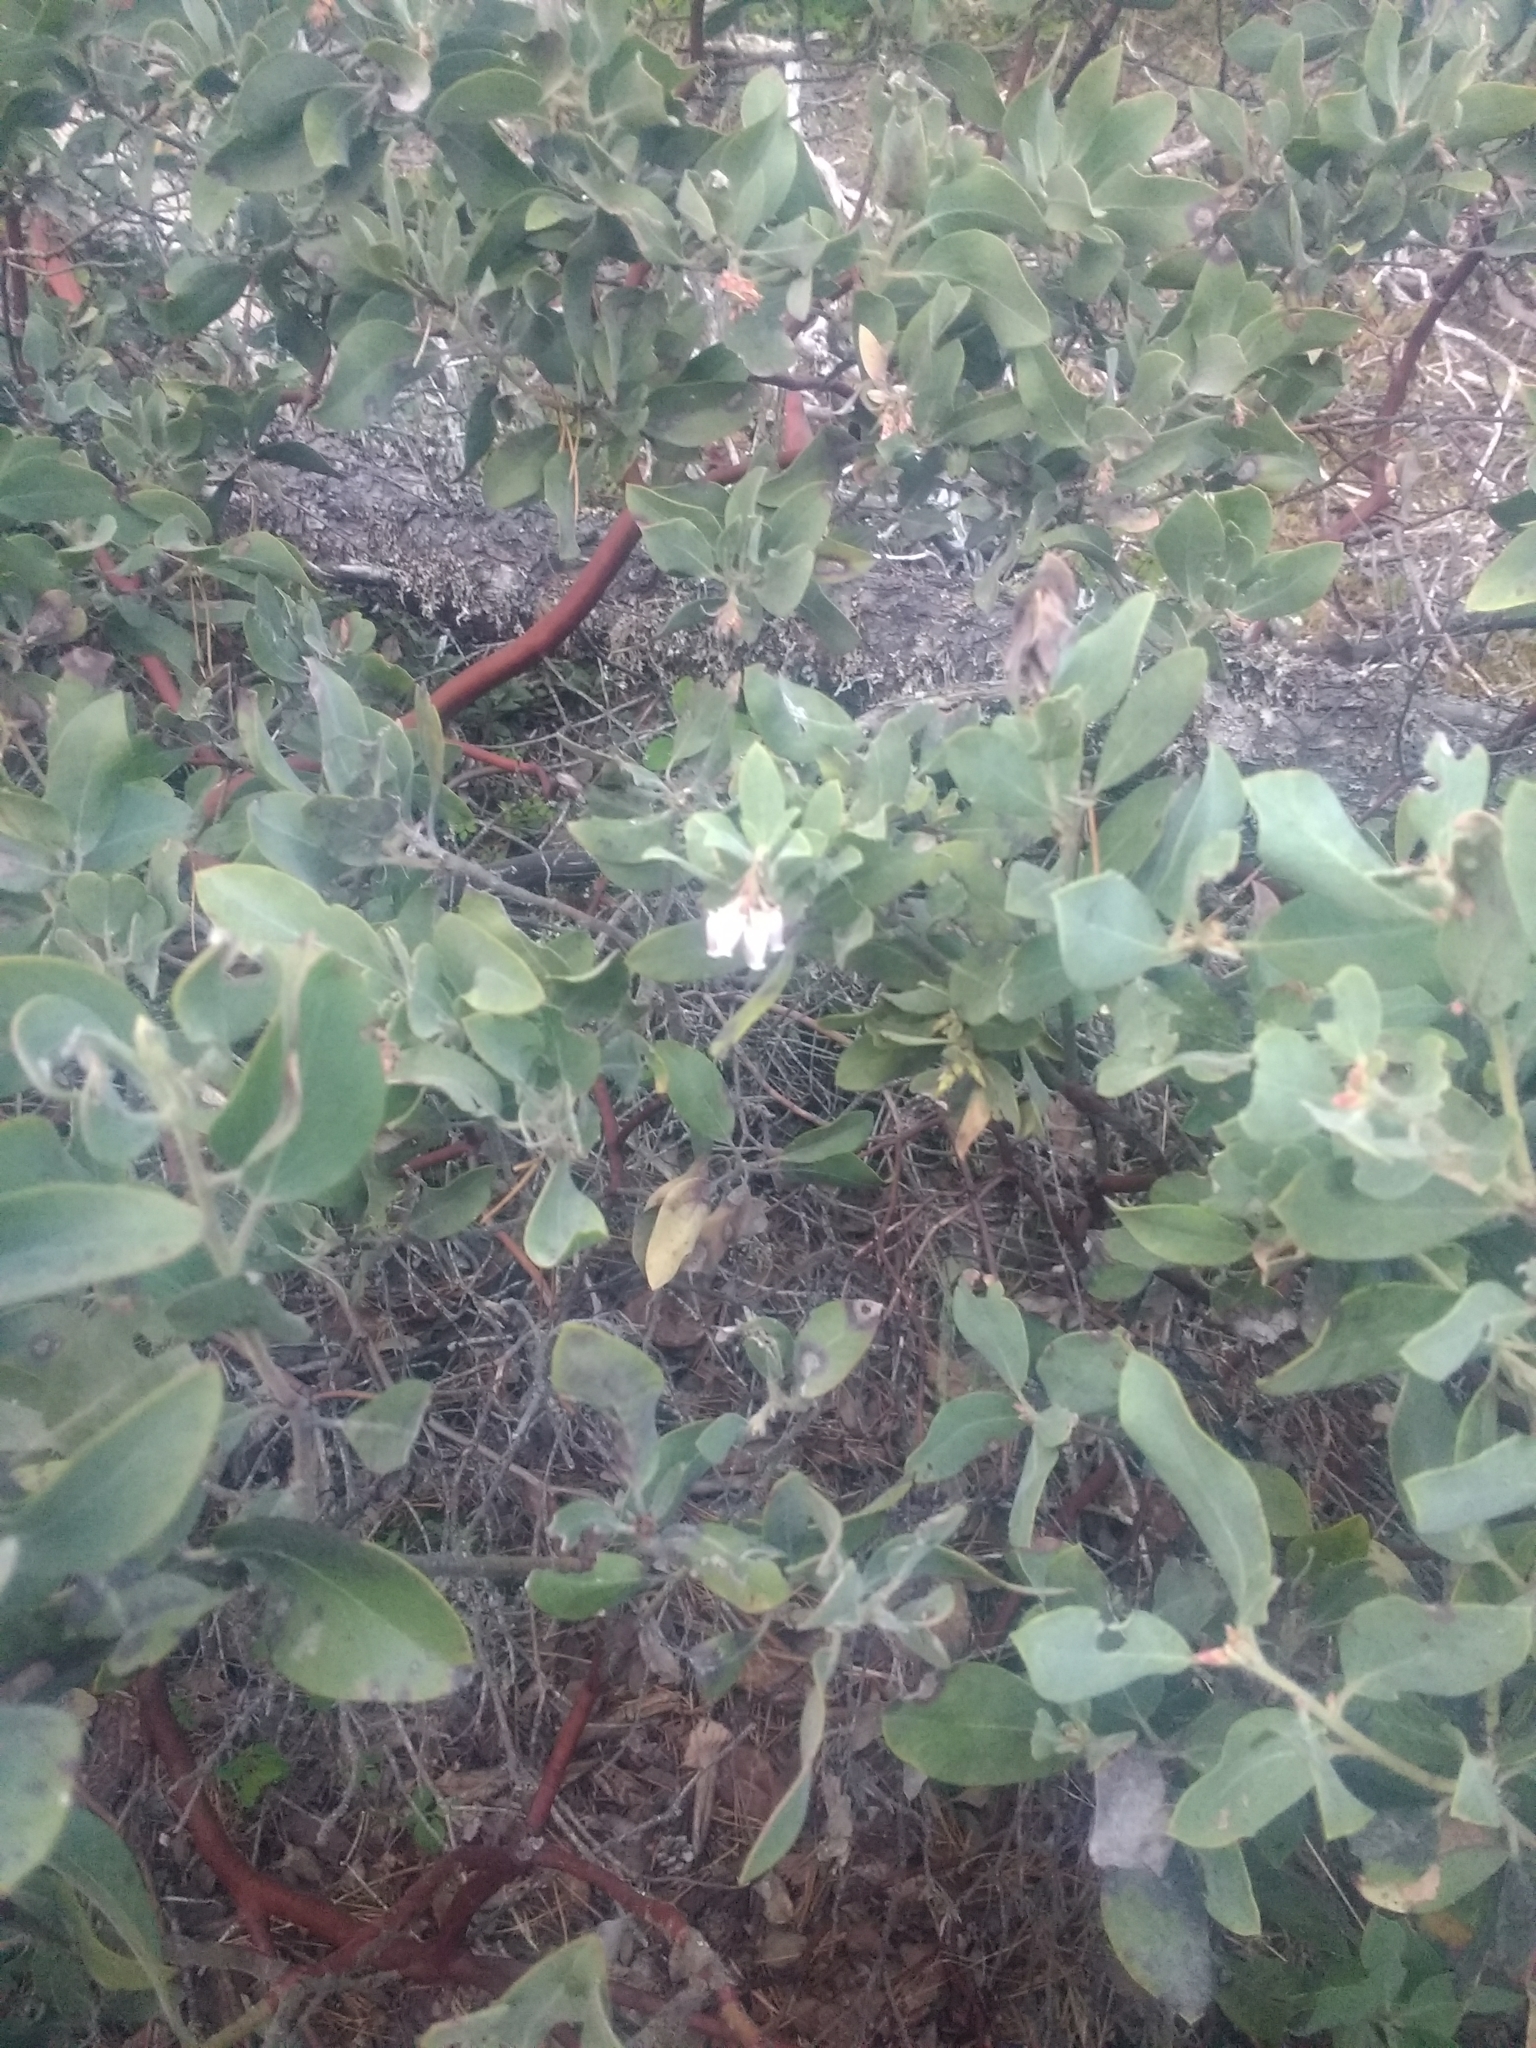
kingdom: Plantae
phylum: Tracheophyta
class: Magnoliopsida
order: Ericales
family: Ericaceae
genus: Arctostaphylos
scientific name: Arctostaphylos columbiana
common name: Bristly bearberry
